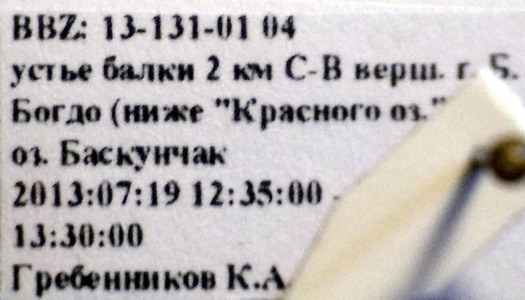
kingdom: Animalia
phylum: Arthropoda
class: Insecta
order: Hymenoptera
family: Formicidae
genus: Cataglyphis
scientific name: Cataglyphis aenescens
